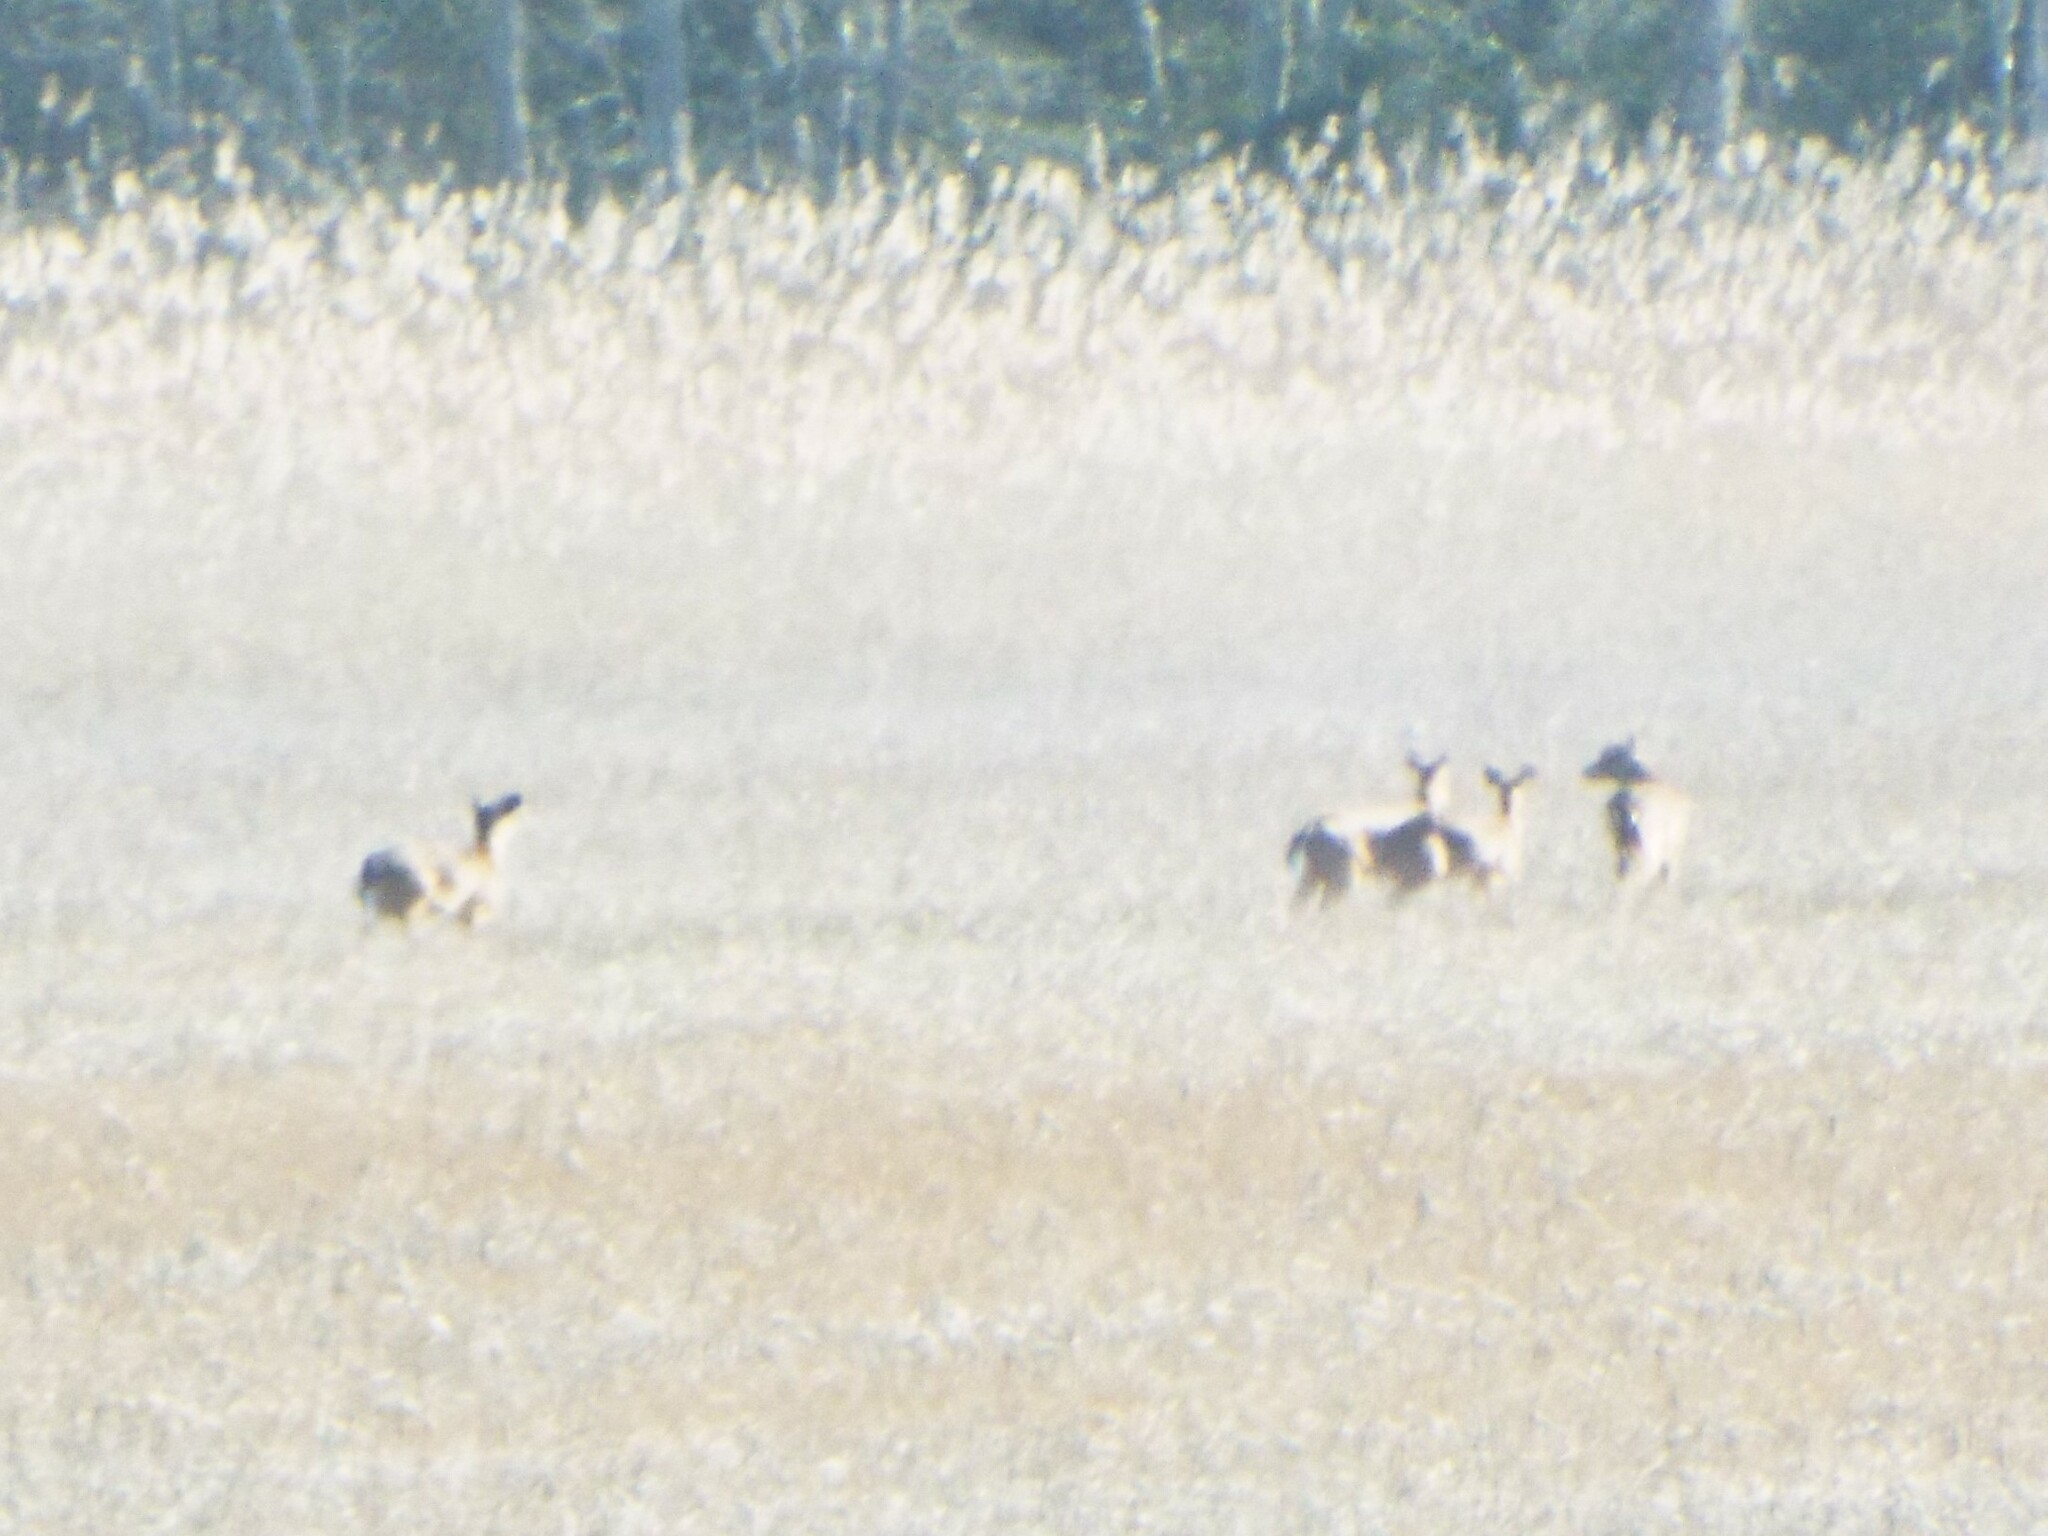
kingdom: Animalia
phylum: Chordata
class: Mammalia
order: Artiodactyla
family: Cervidae
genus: Odocoileus
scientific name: Odocoileus virginianus
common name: White-tailed deer
